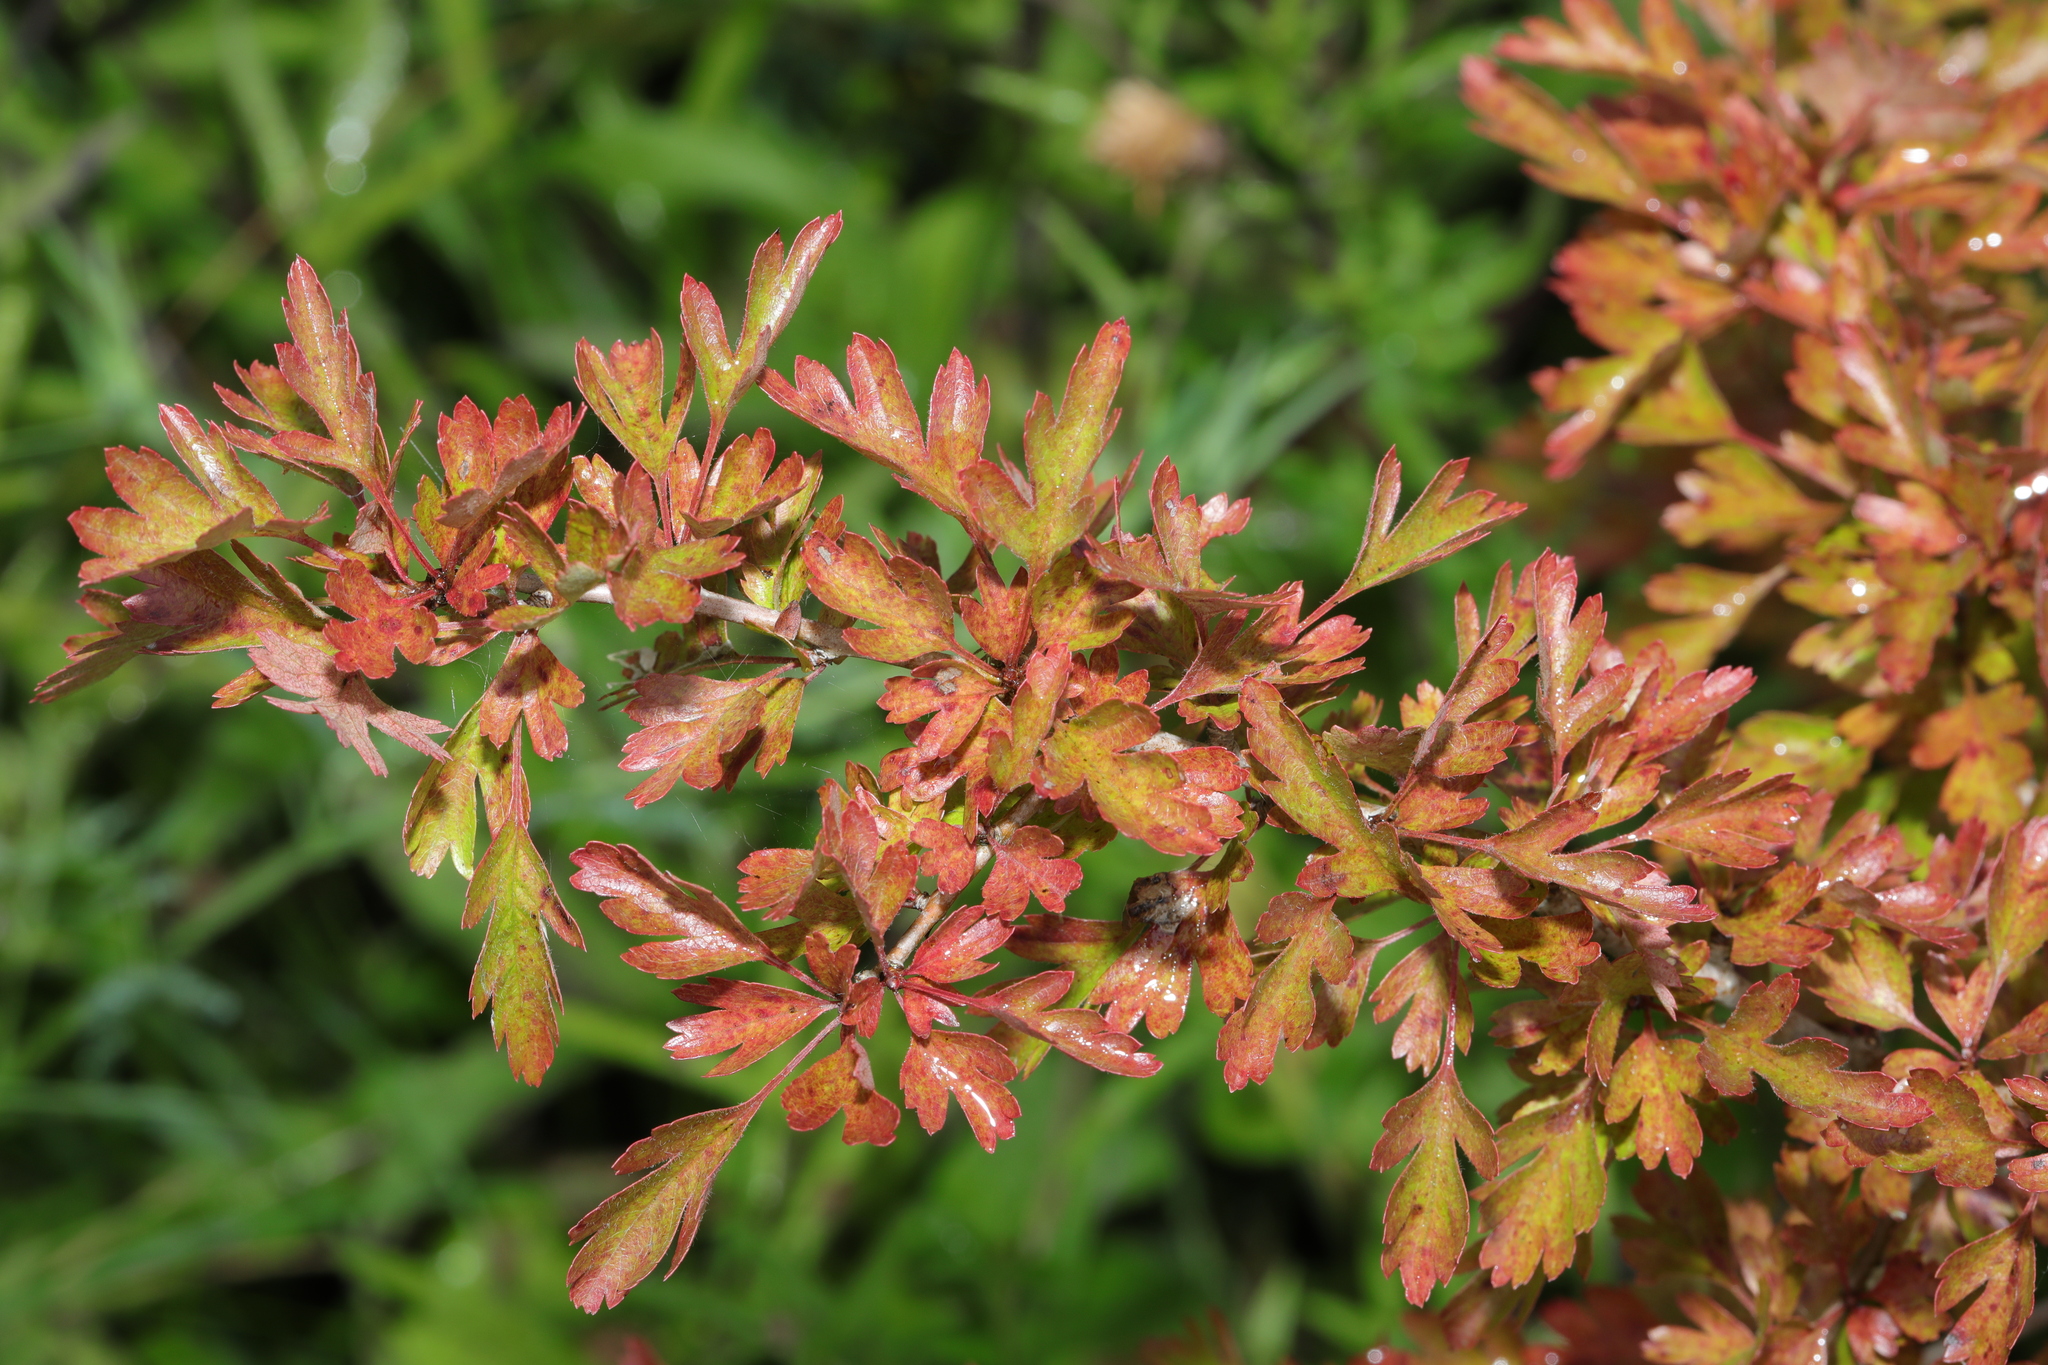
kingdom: Plantae
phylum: Tracheophyta
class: Magnoliopsida
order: Rosales
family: Rosaceae
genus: Crataegus
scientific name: Crataegus monogyna
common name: Hawthorn
